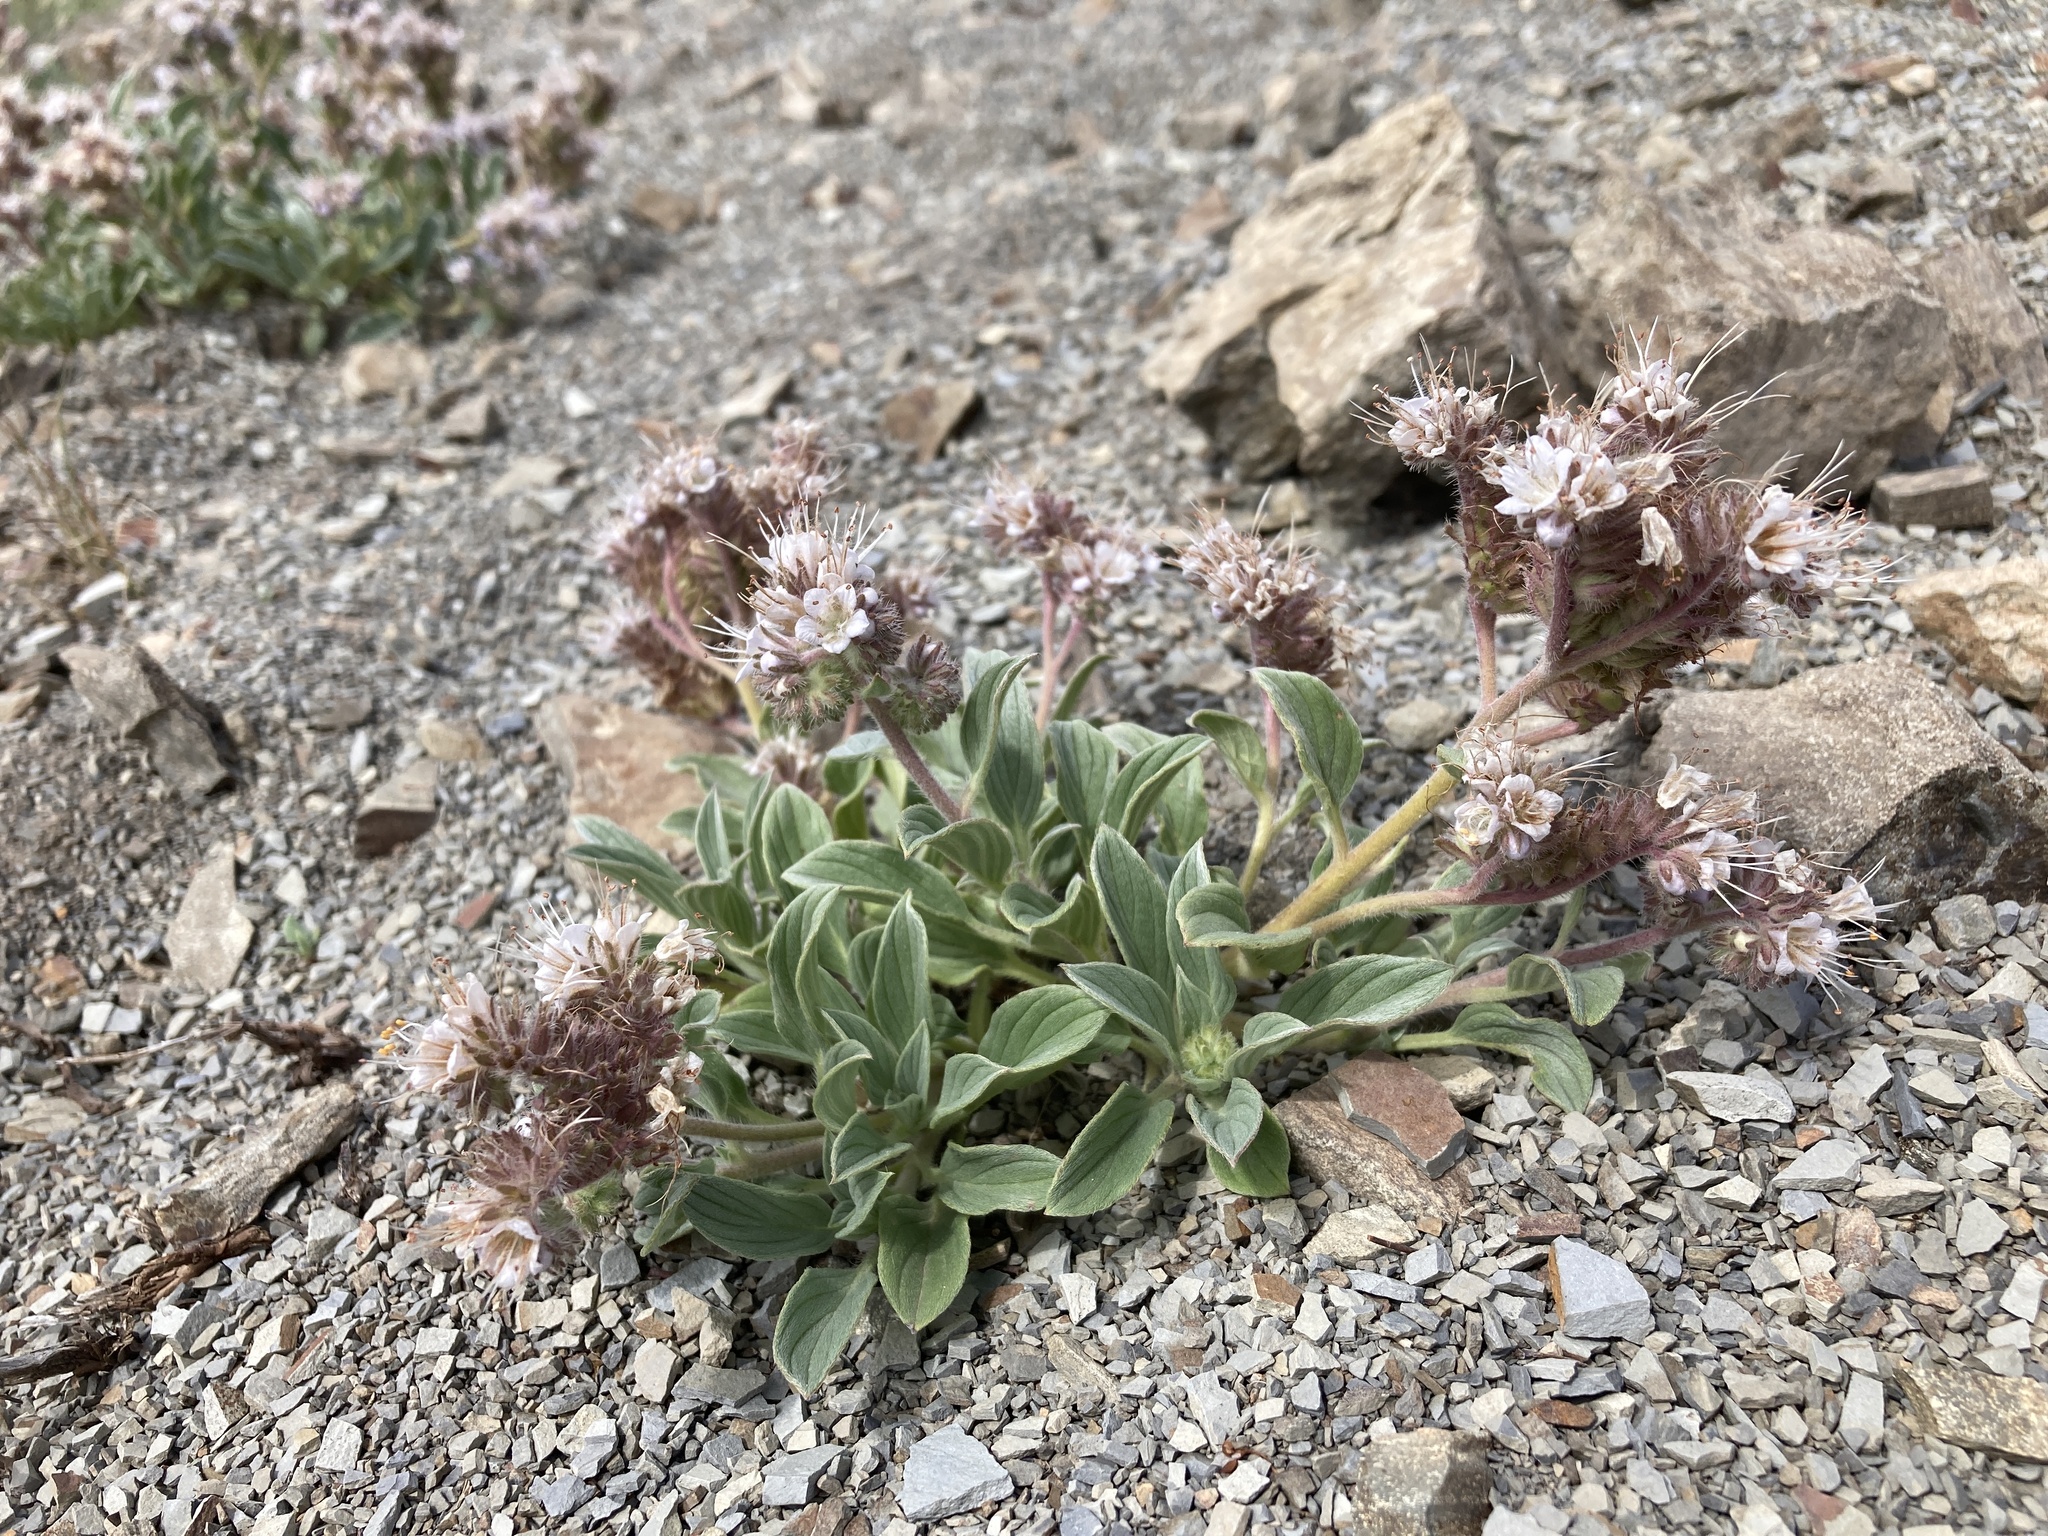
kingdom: Plantae
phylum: Tracheophyta
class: Magnoliopsida
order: Boraginales
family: Hydrophyllaceae
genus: Phacelia
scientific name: Phacelia hastata
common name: Silver-leaved phacelia
